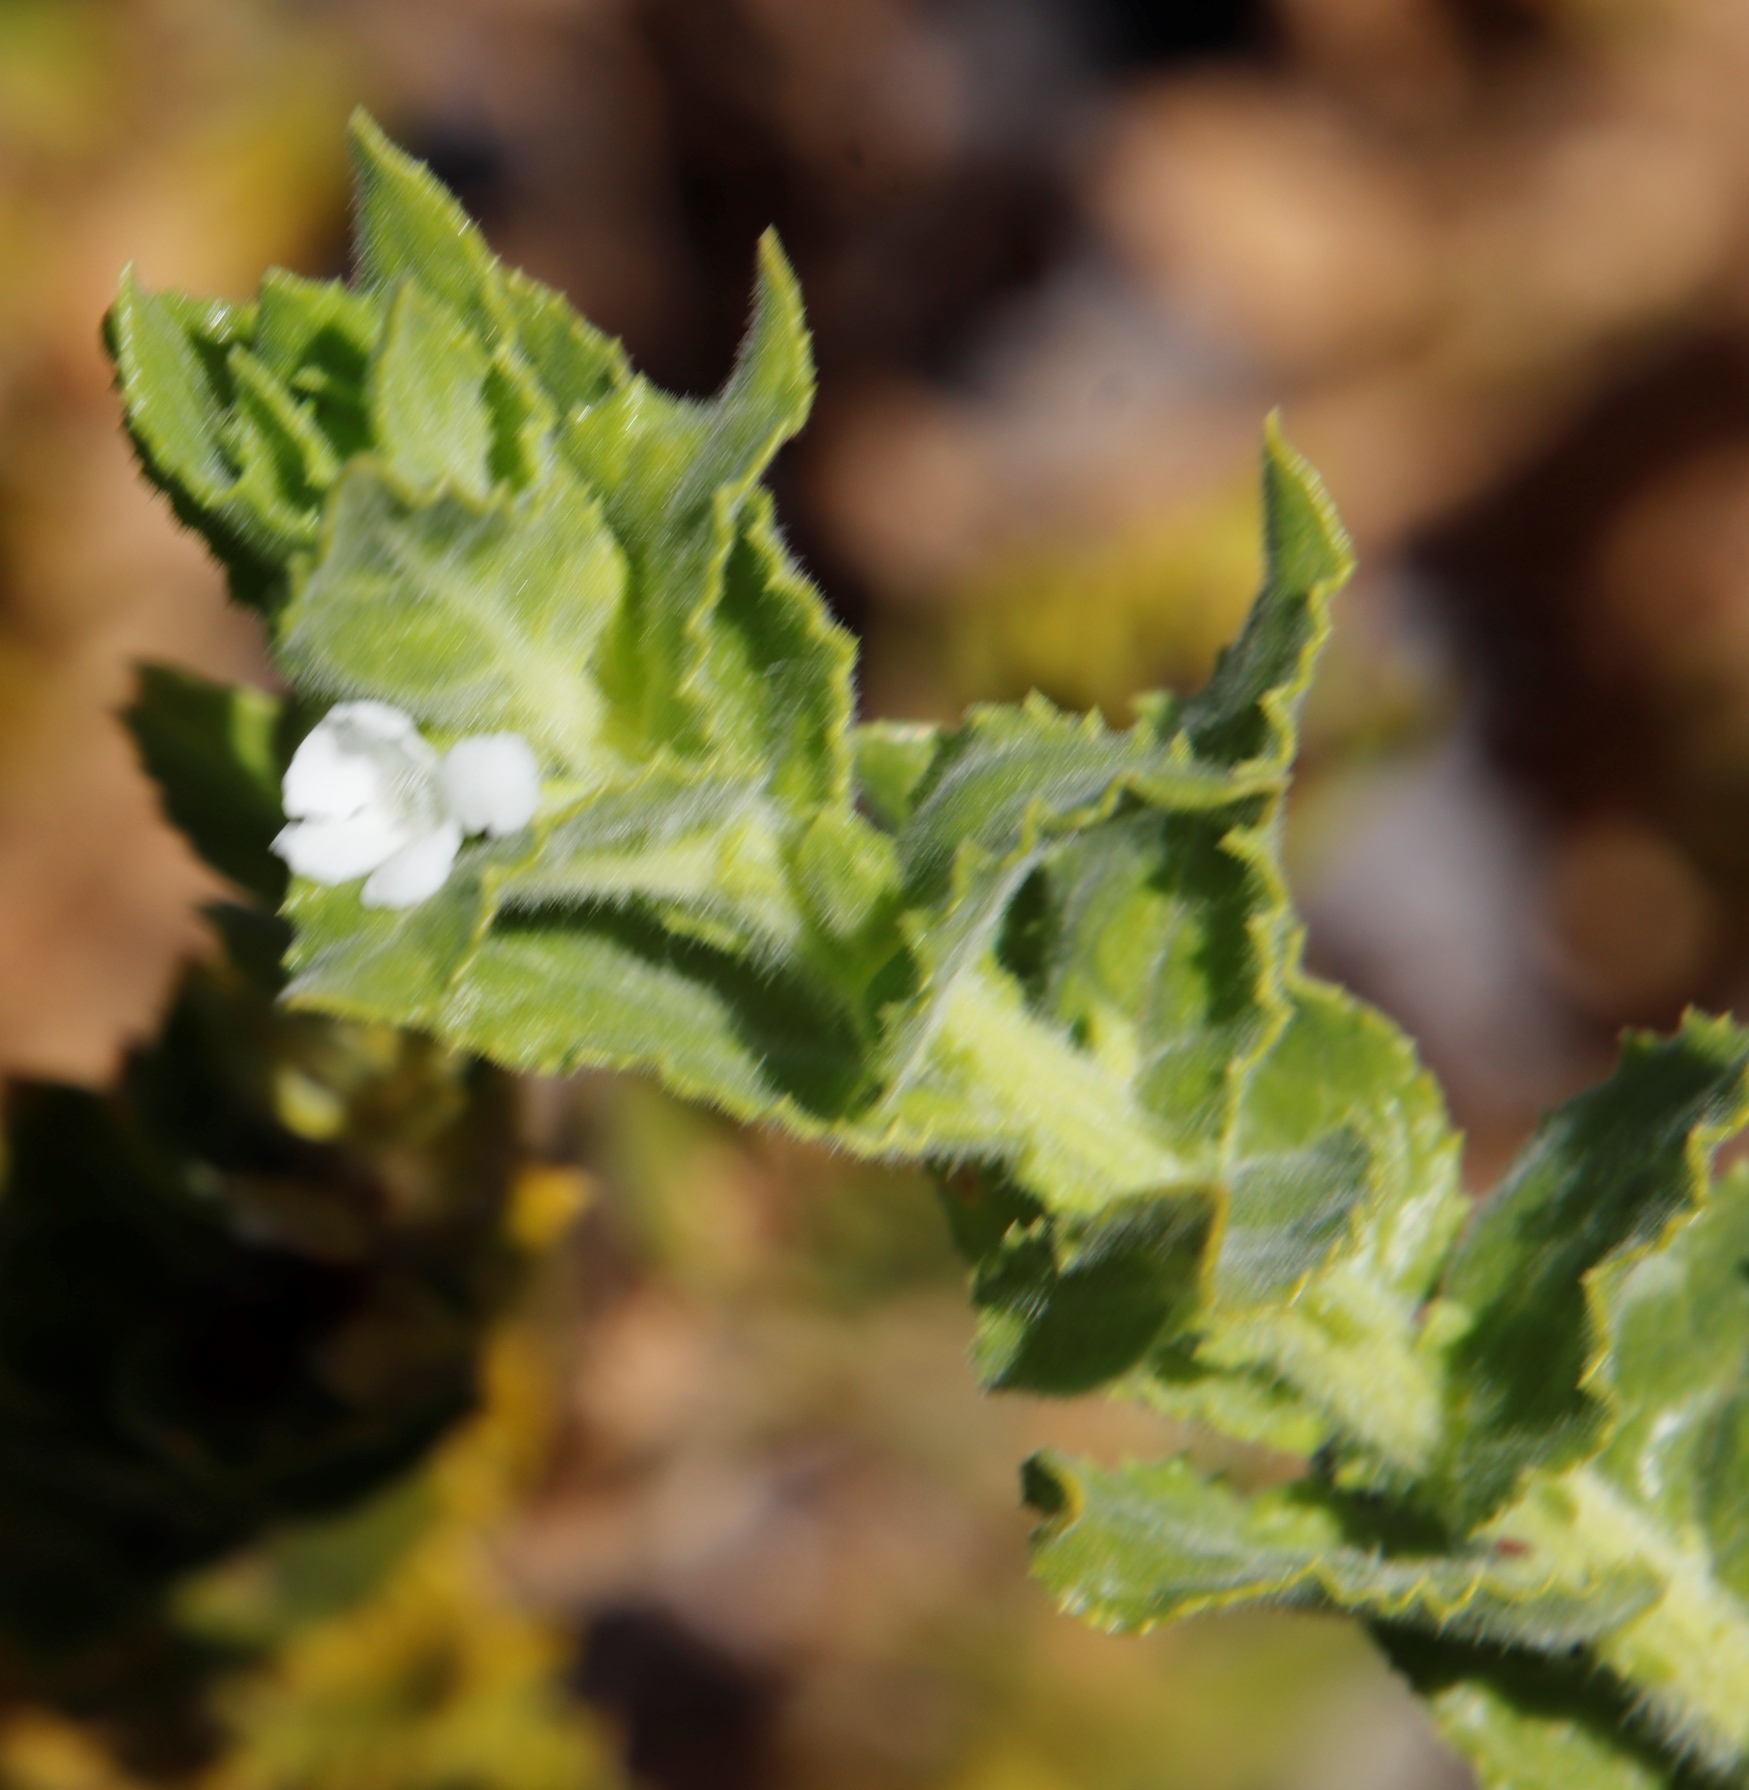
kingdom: Plantae
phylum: Tracheophyta
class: Magnoliopsida
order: Lamiales
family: Scrophulariaceae
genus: Oftia
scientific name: Oftia africana
